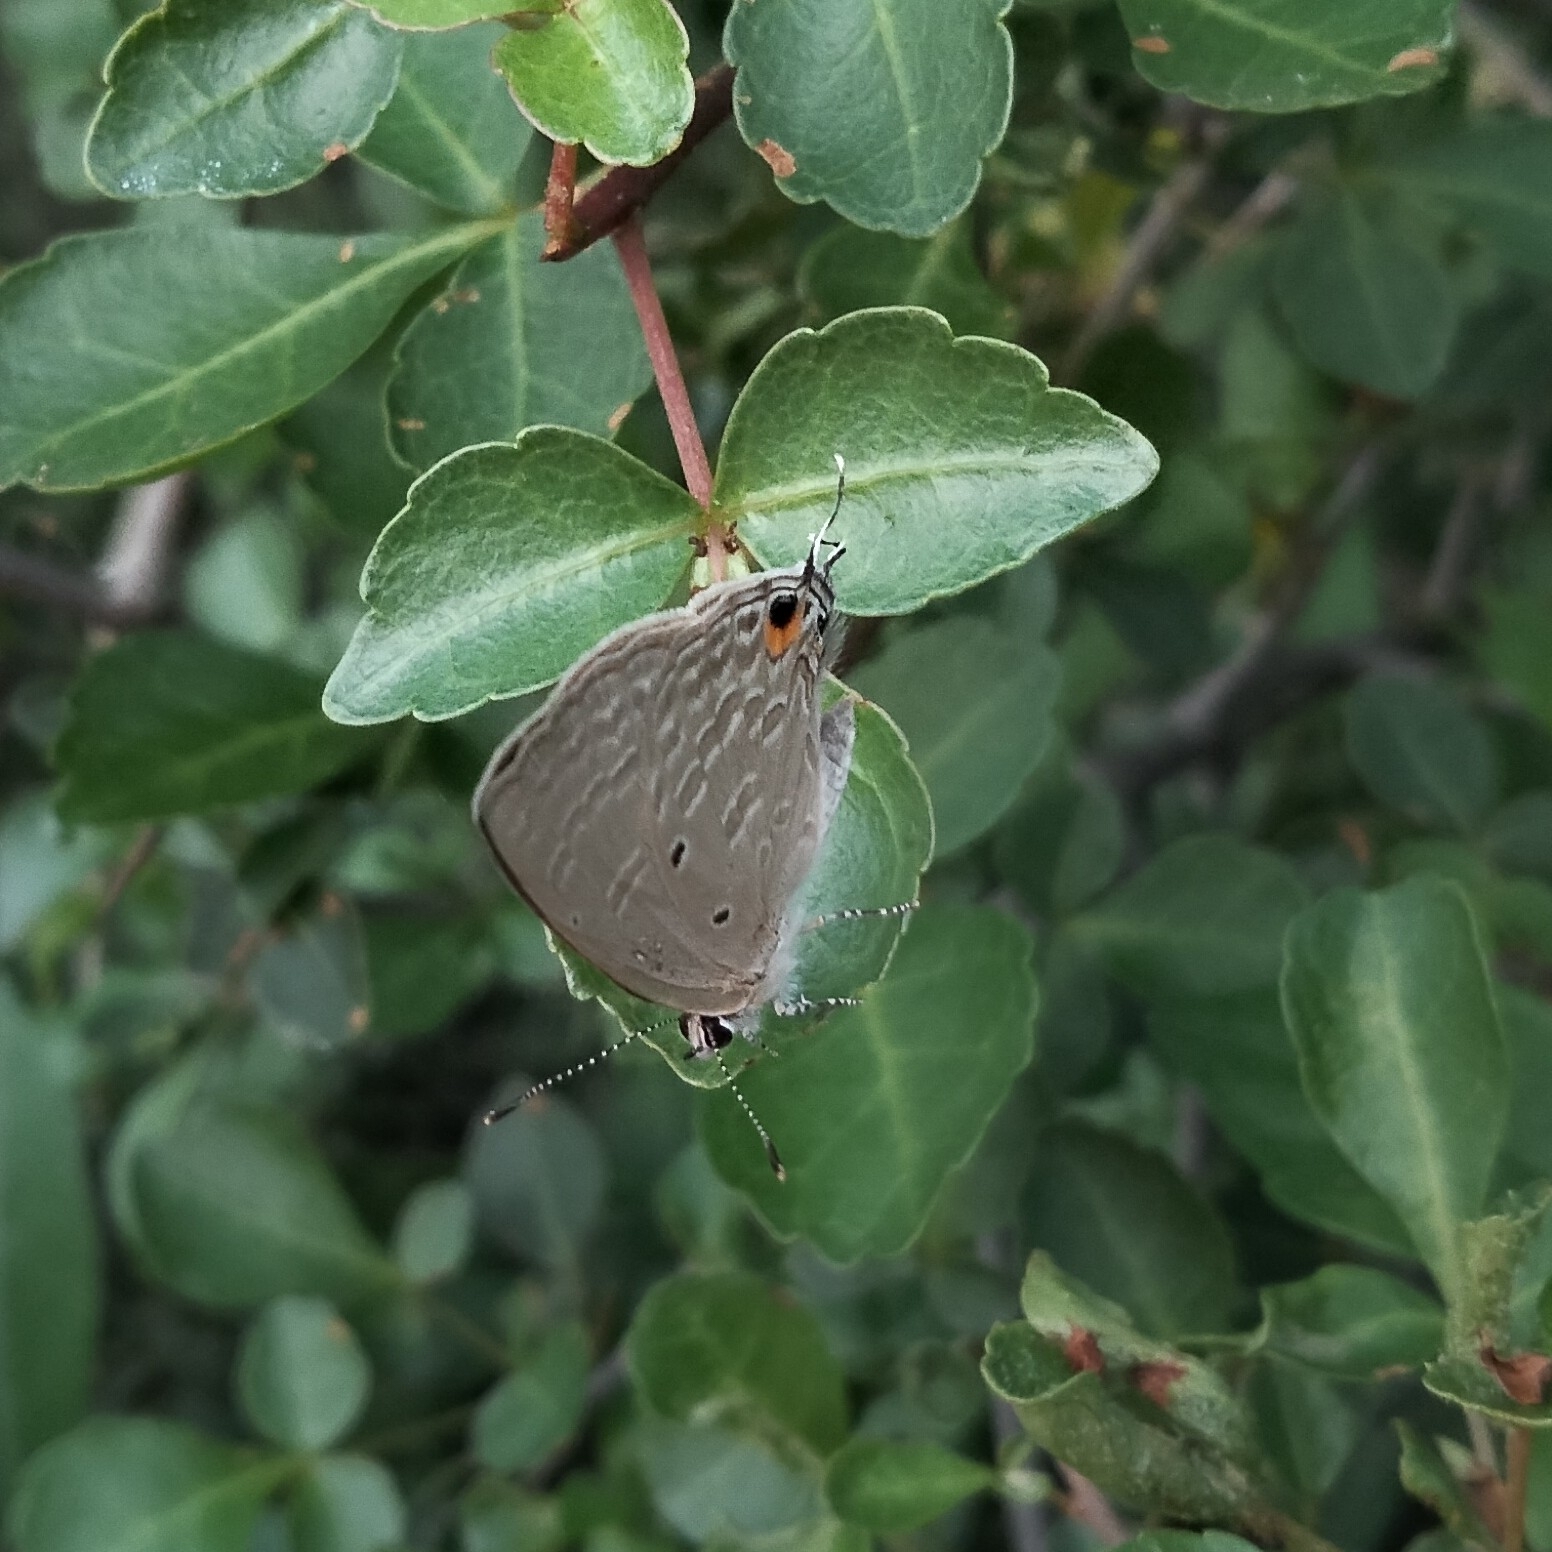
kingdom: Animalia
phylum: Arthropoda
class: Insecta
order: Lepidoptera
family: Lycaenidae
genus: Catochrysops
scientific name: Catochrysops strabo
